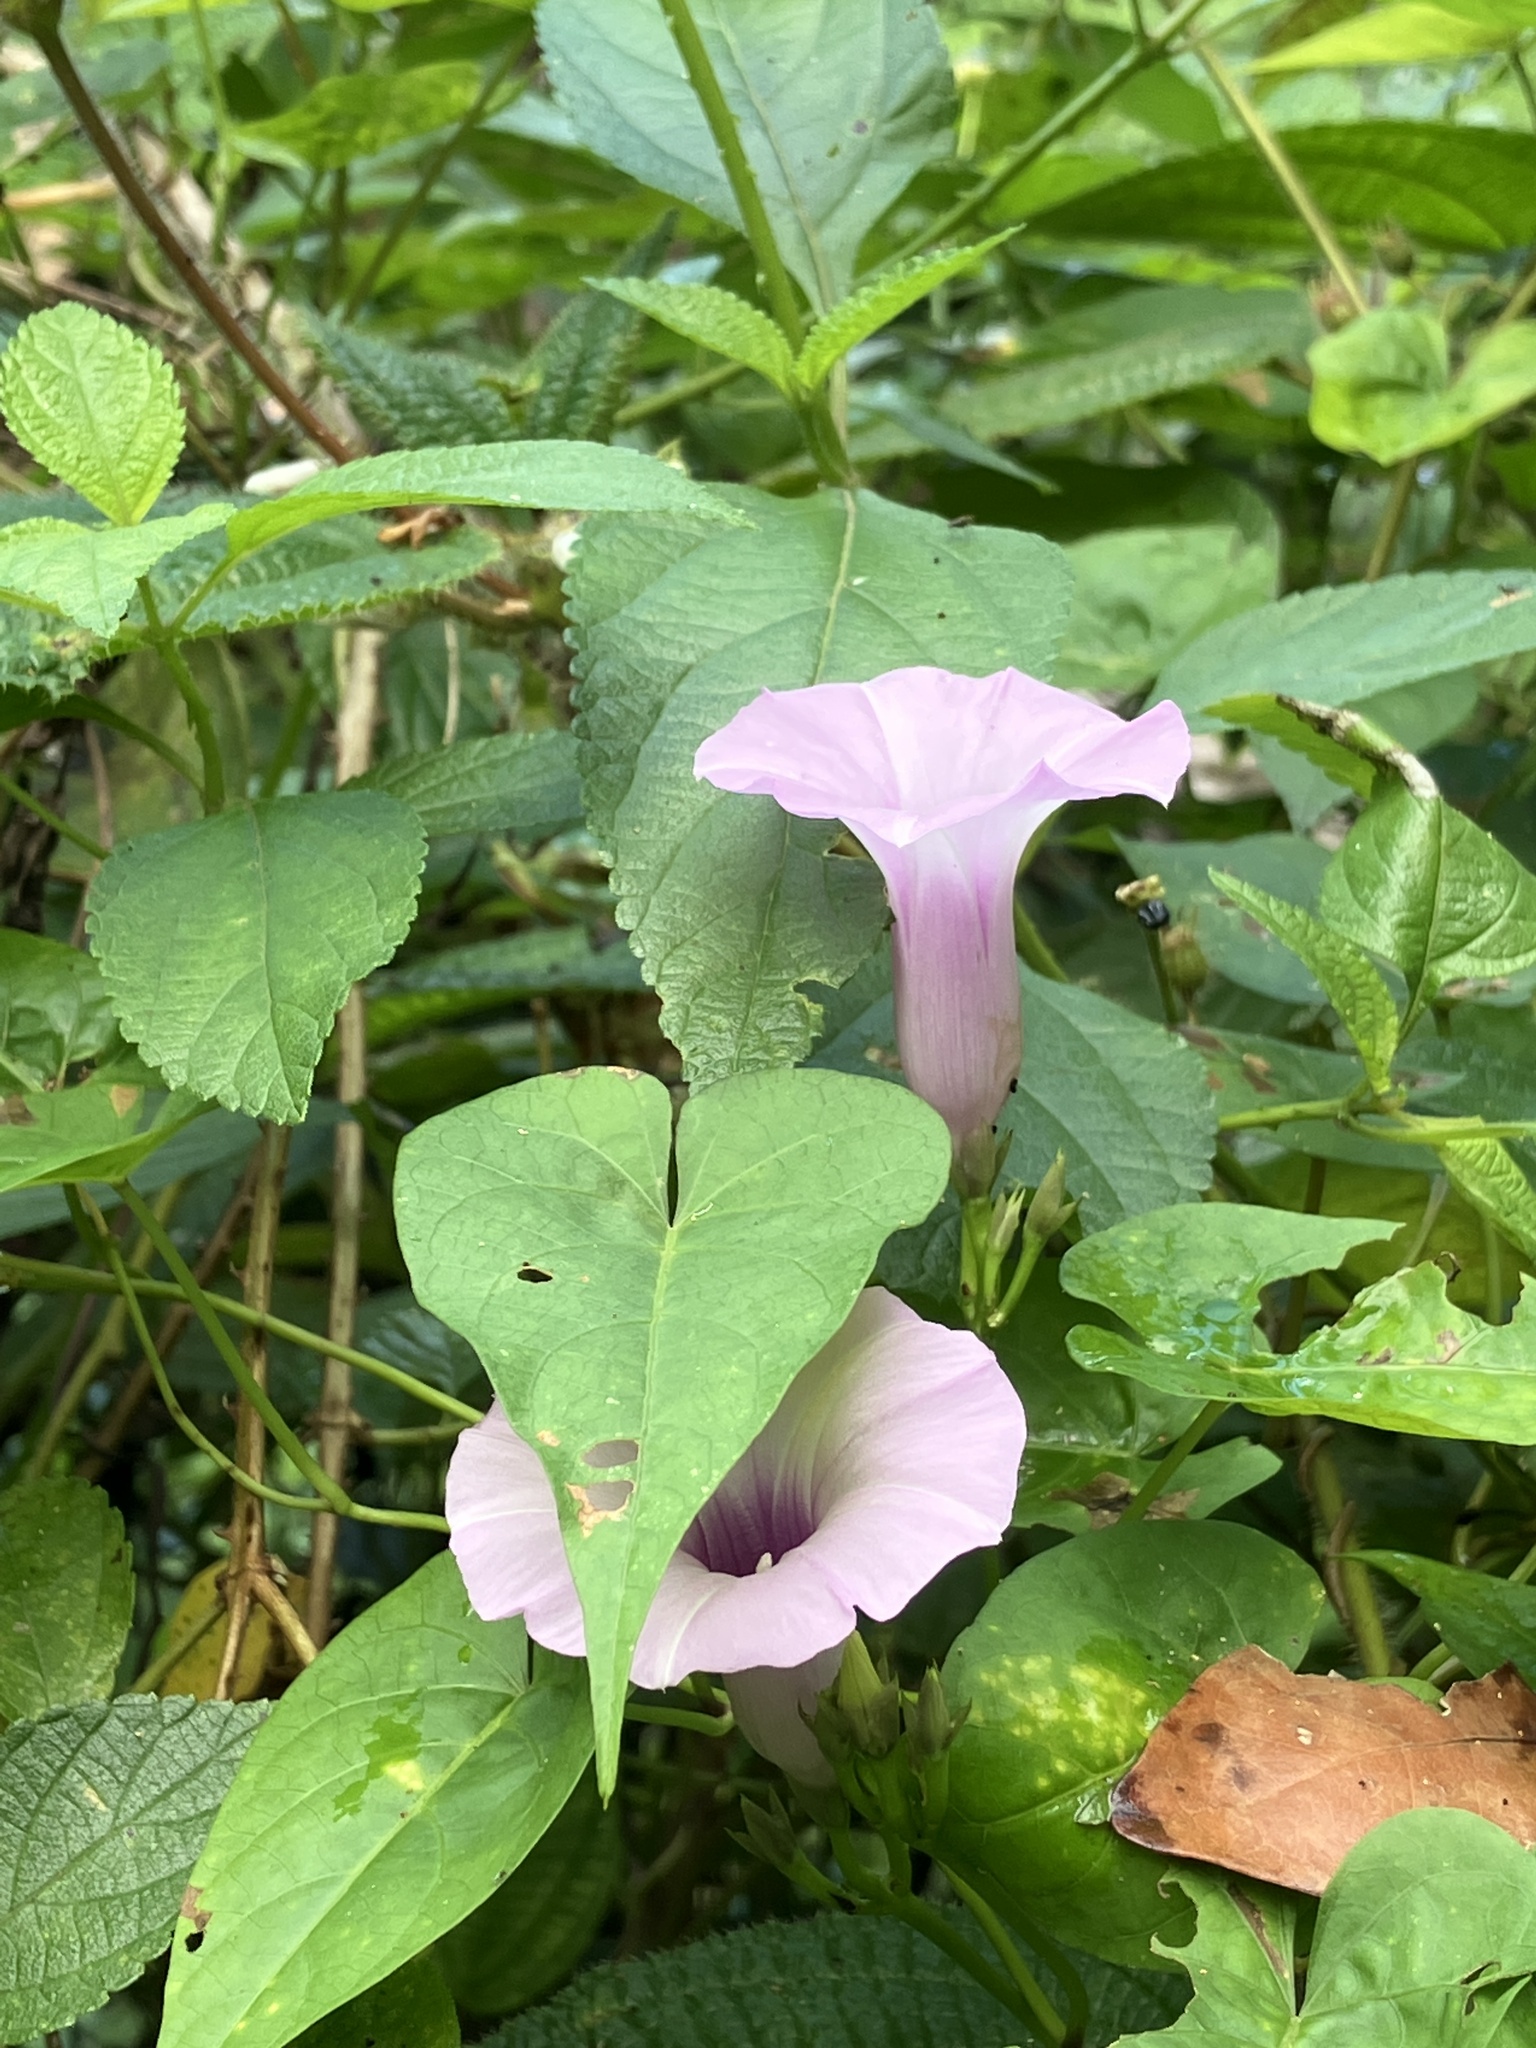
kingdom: Plantae
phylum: Tracheophyta
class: Magnoliopsida
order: Solanales
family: Convolvulaceae
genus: Ipomoea
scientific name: Ipomoea tiliacea
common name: Wild potato vine
